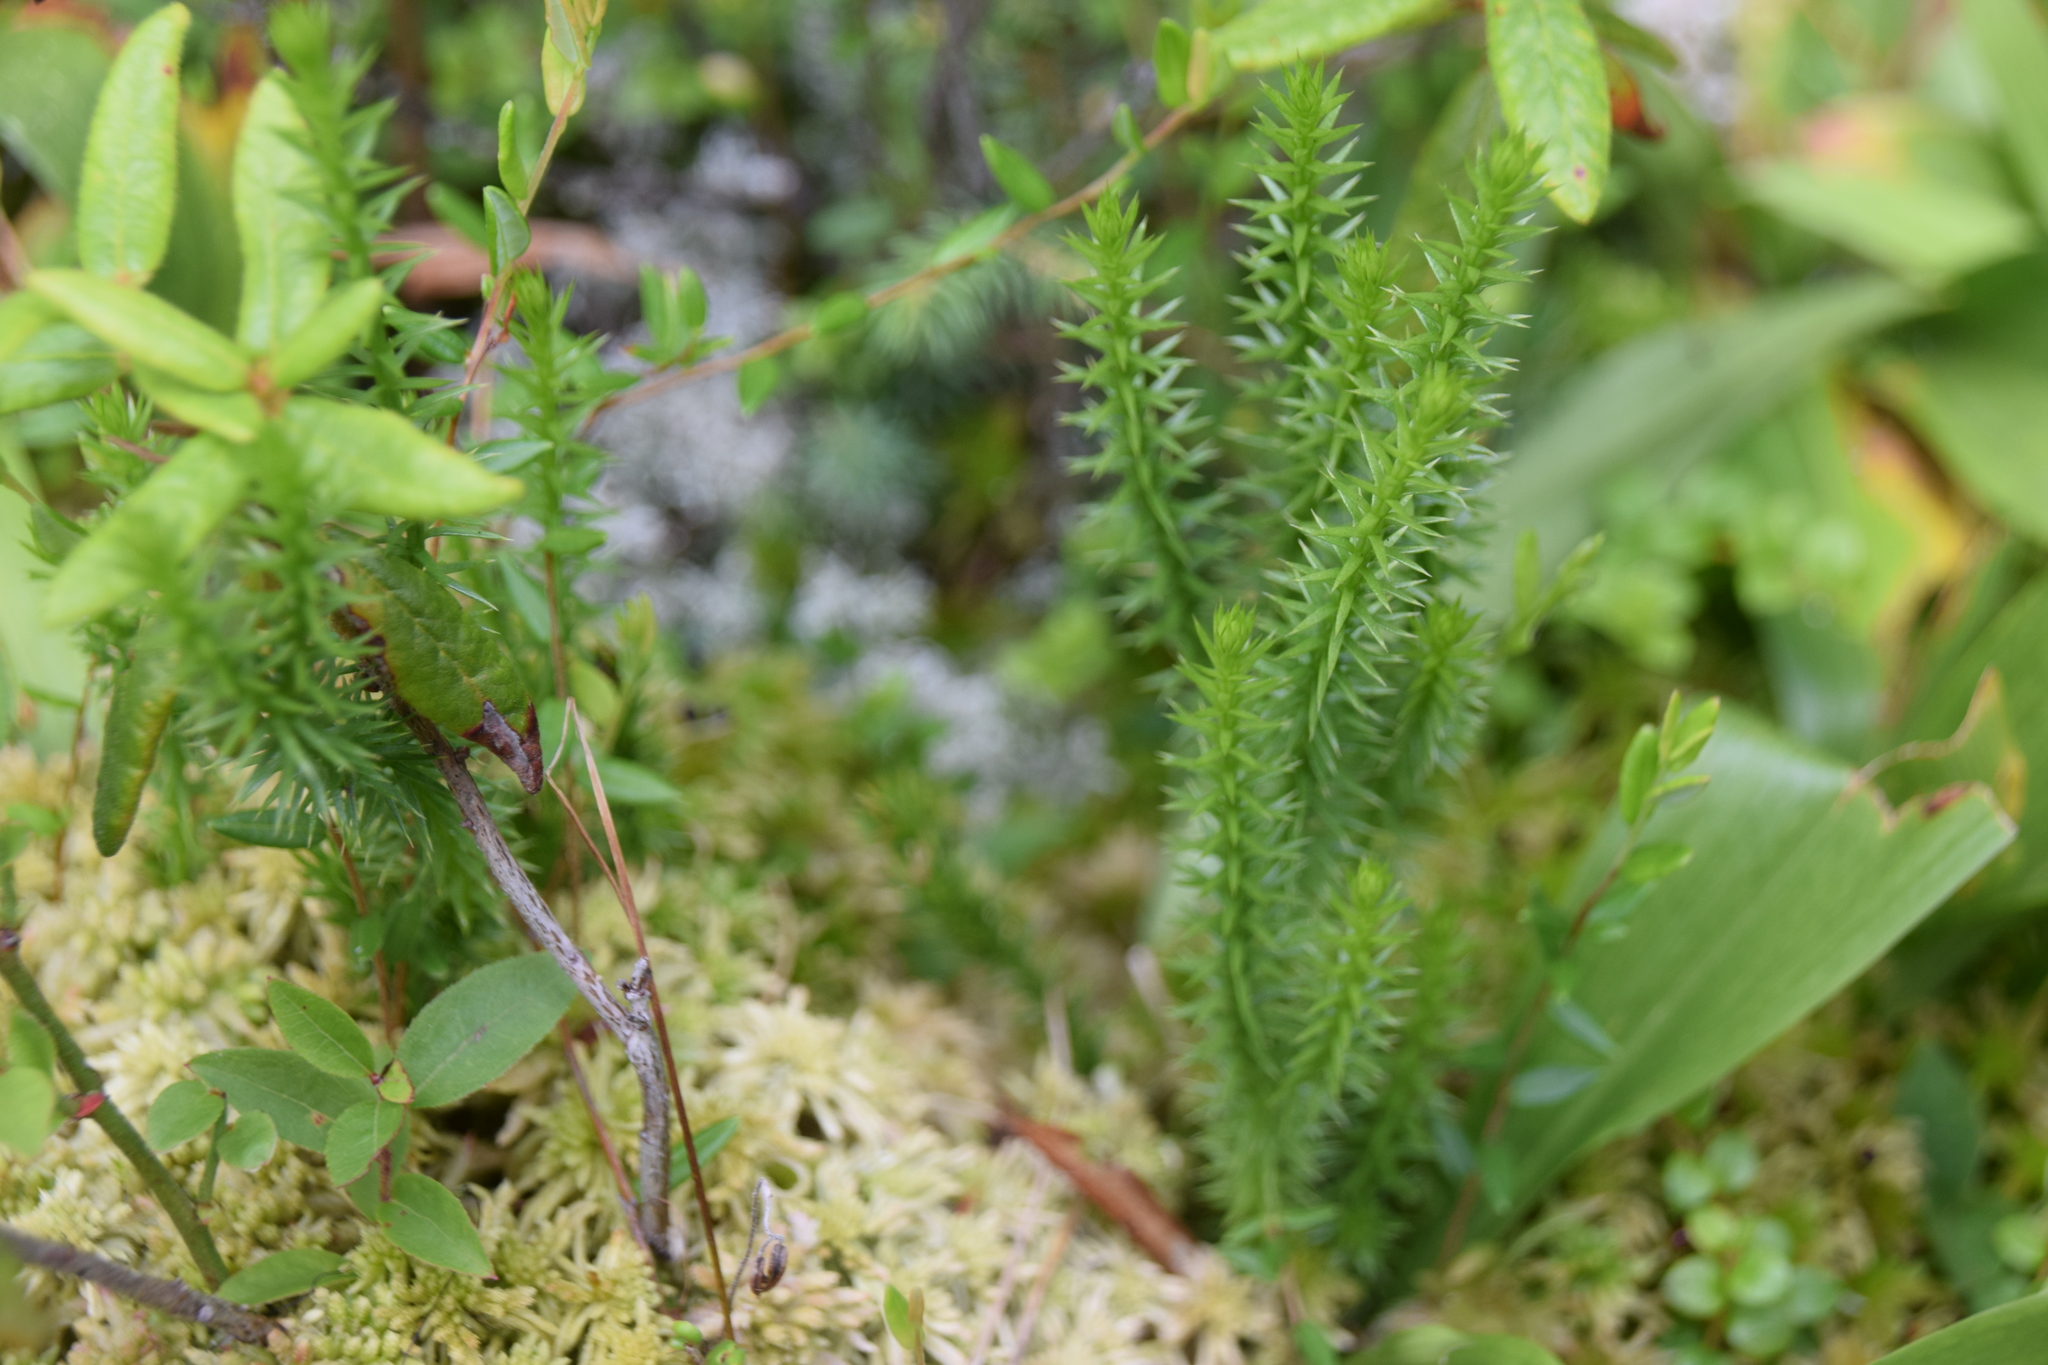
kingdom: Plantae
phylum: Tracheophyta
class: Lycopodiopsida
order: Lycopodiales
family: Lycopodiaceae
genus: Spinulum
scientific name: Spinulum annotinum
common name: Interrupted club-moss
